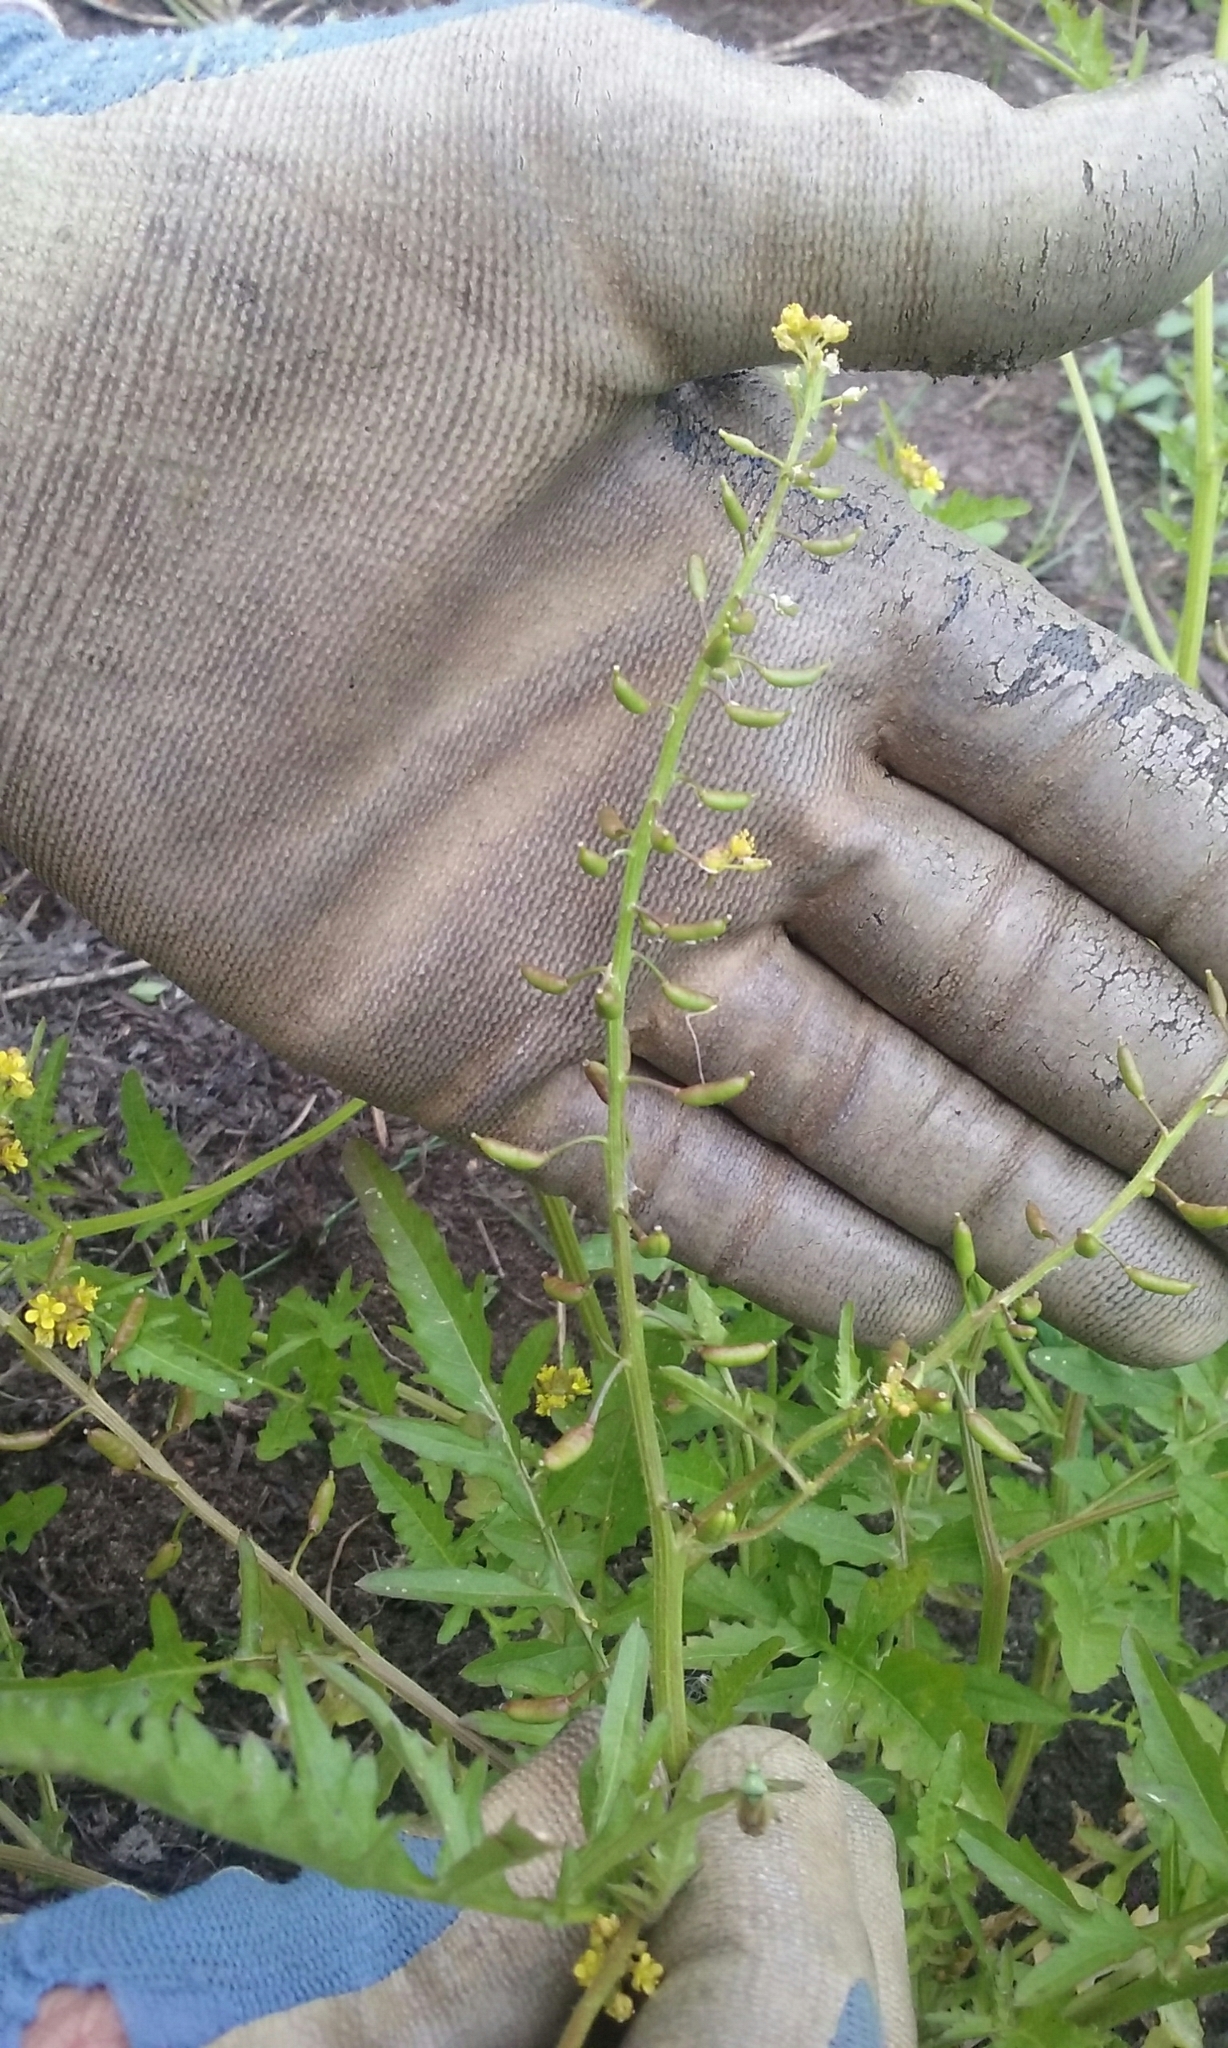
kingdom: Plantae
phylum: Tracheophyta
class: Magnoliopsida
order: Brassicales
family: Brassicaceae
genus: Rorippa
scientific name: Rorippa palustris
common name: Marsh yellow-cress
